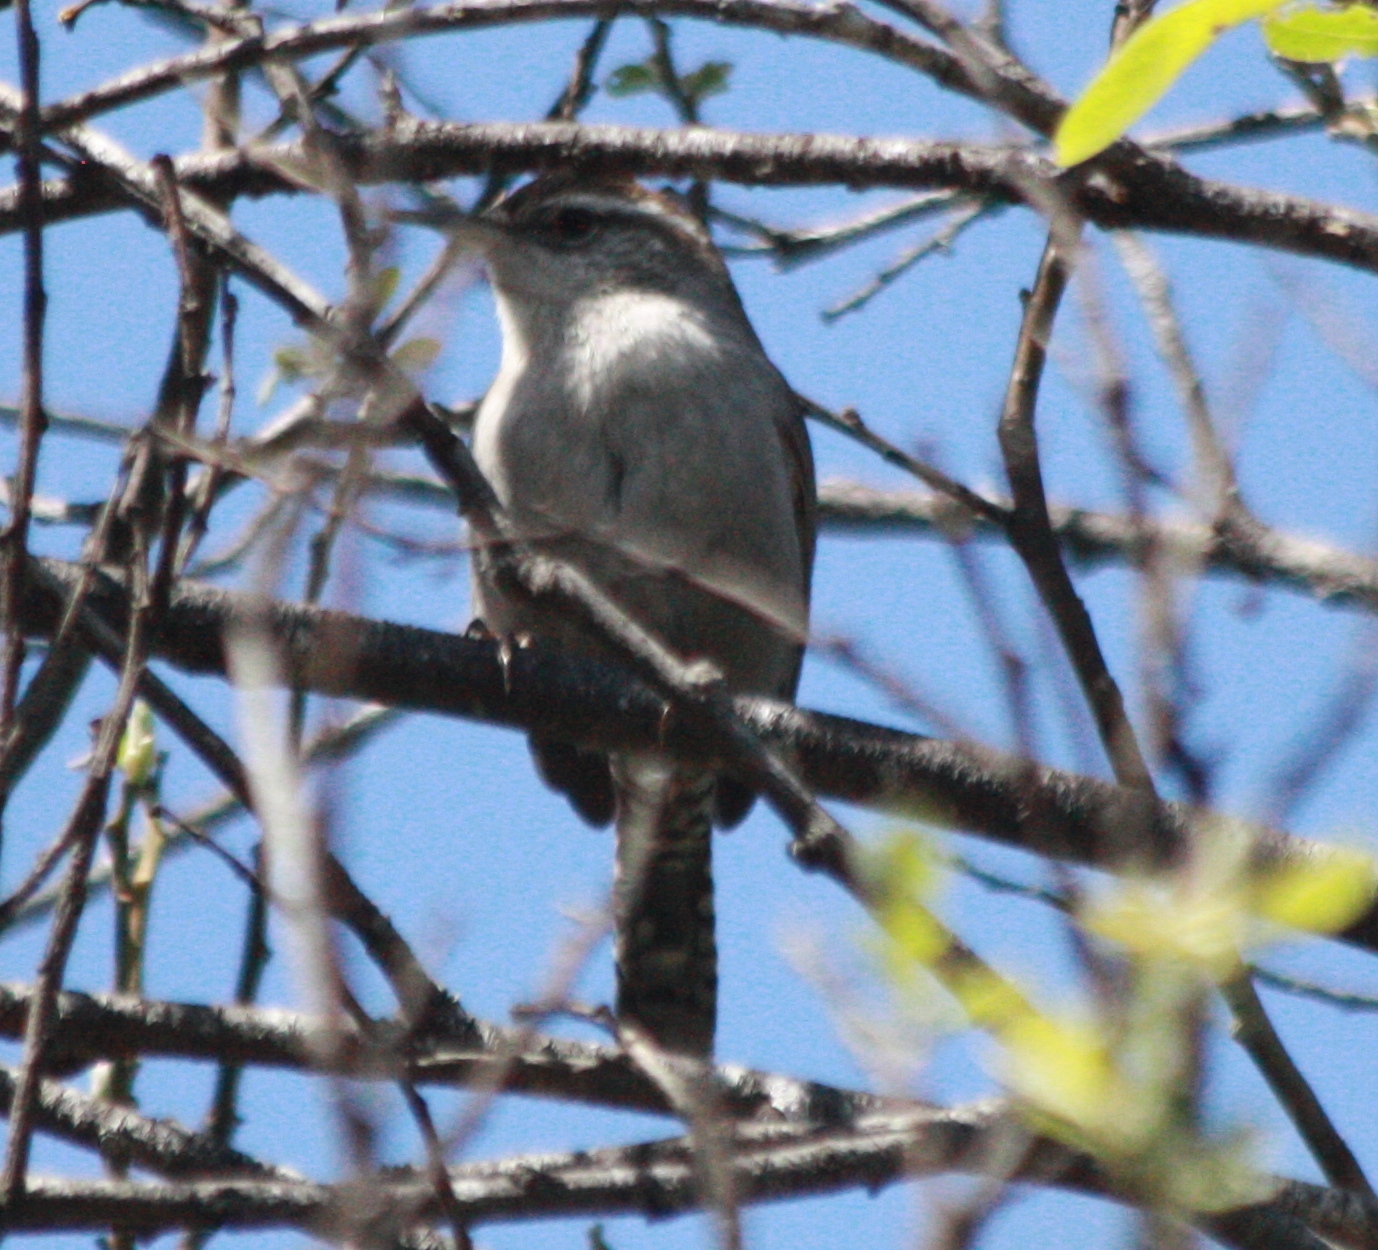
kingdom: Animalia
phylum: Chordata
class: Aves
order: Passeriformes
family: Troglodytidae
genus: Thryomanes
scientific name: Thryomanes bewickii
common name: Bewick's wren
